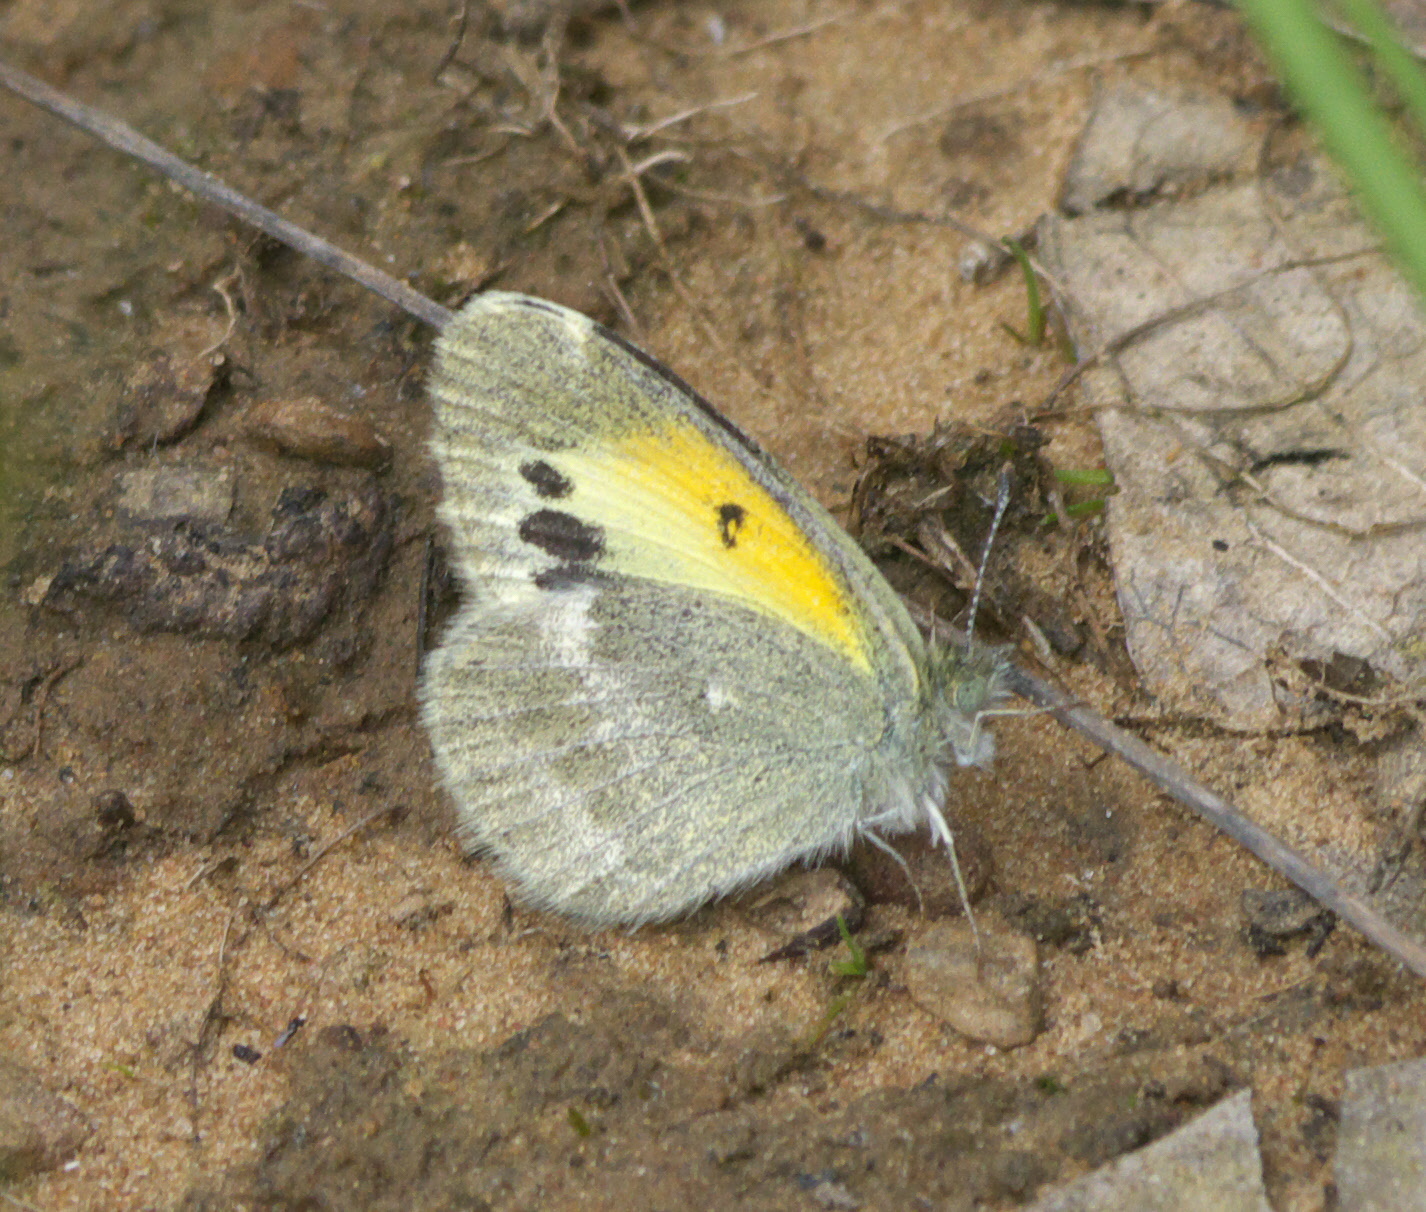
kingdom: Animalia
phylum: Arthropoda
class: Insecta
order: Lepidoptera
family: Pieridae
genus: Nathalis
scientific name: Nathalis iole
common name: Dainty sulphur
